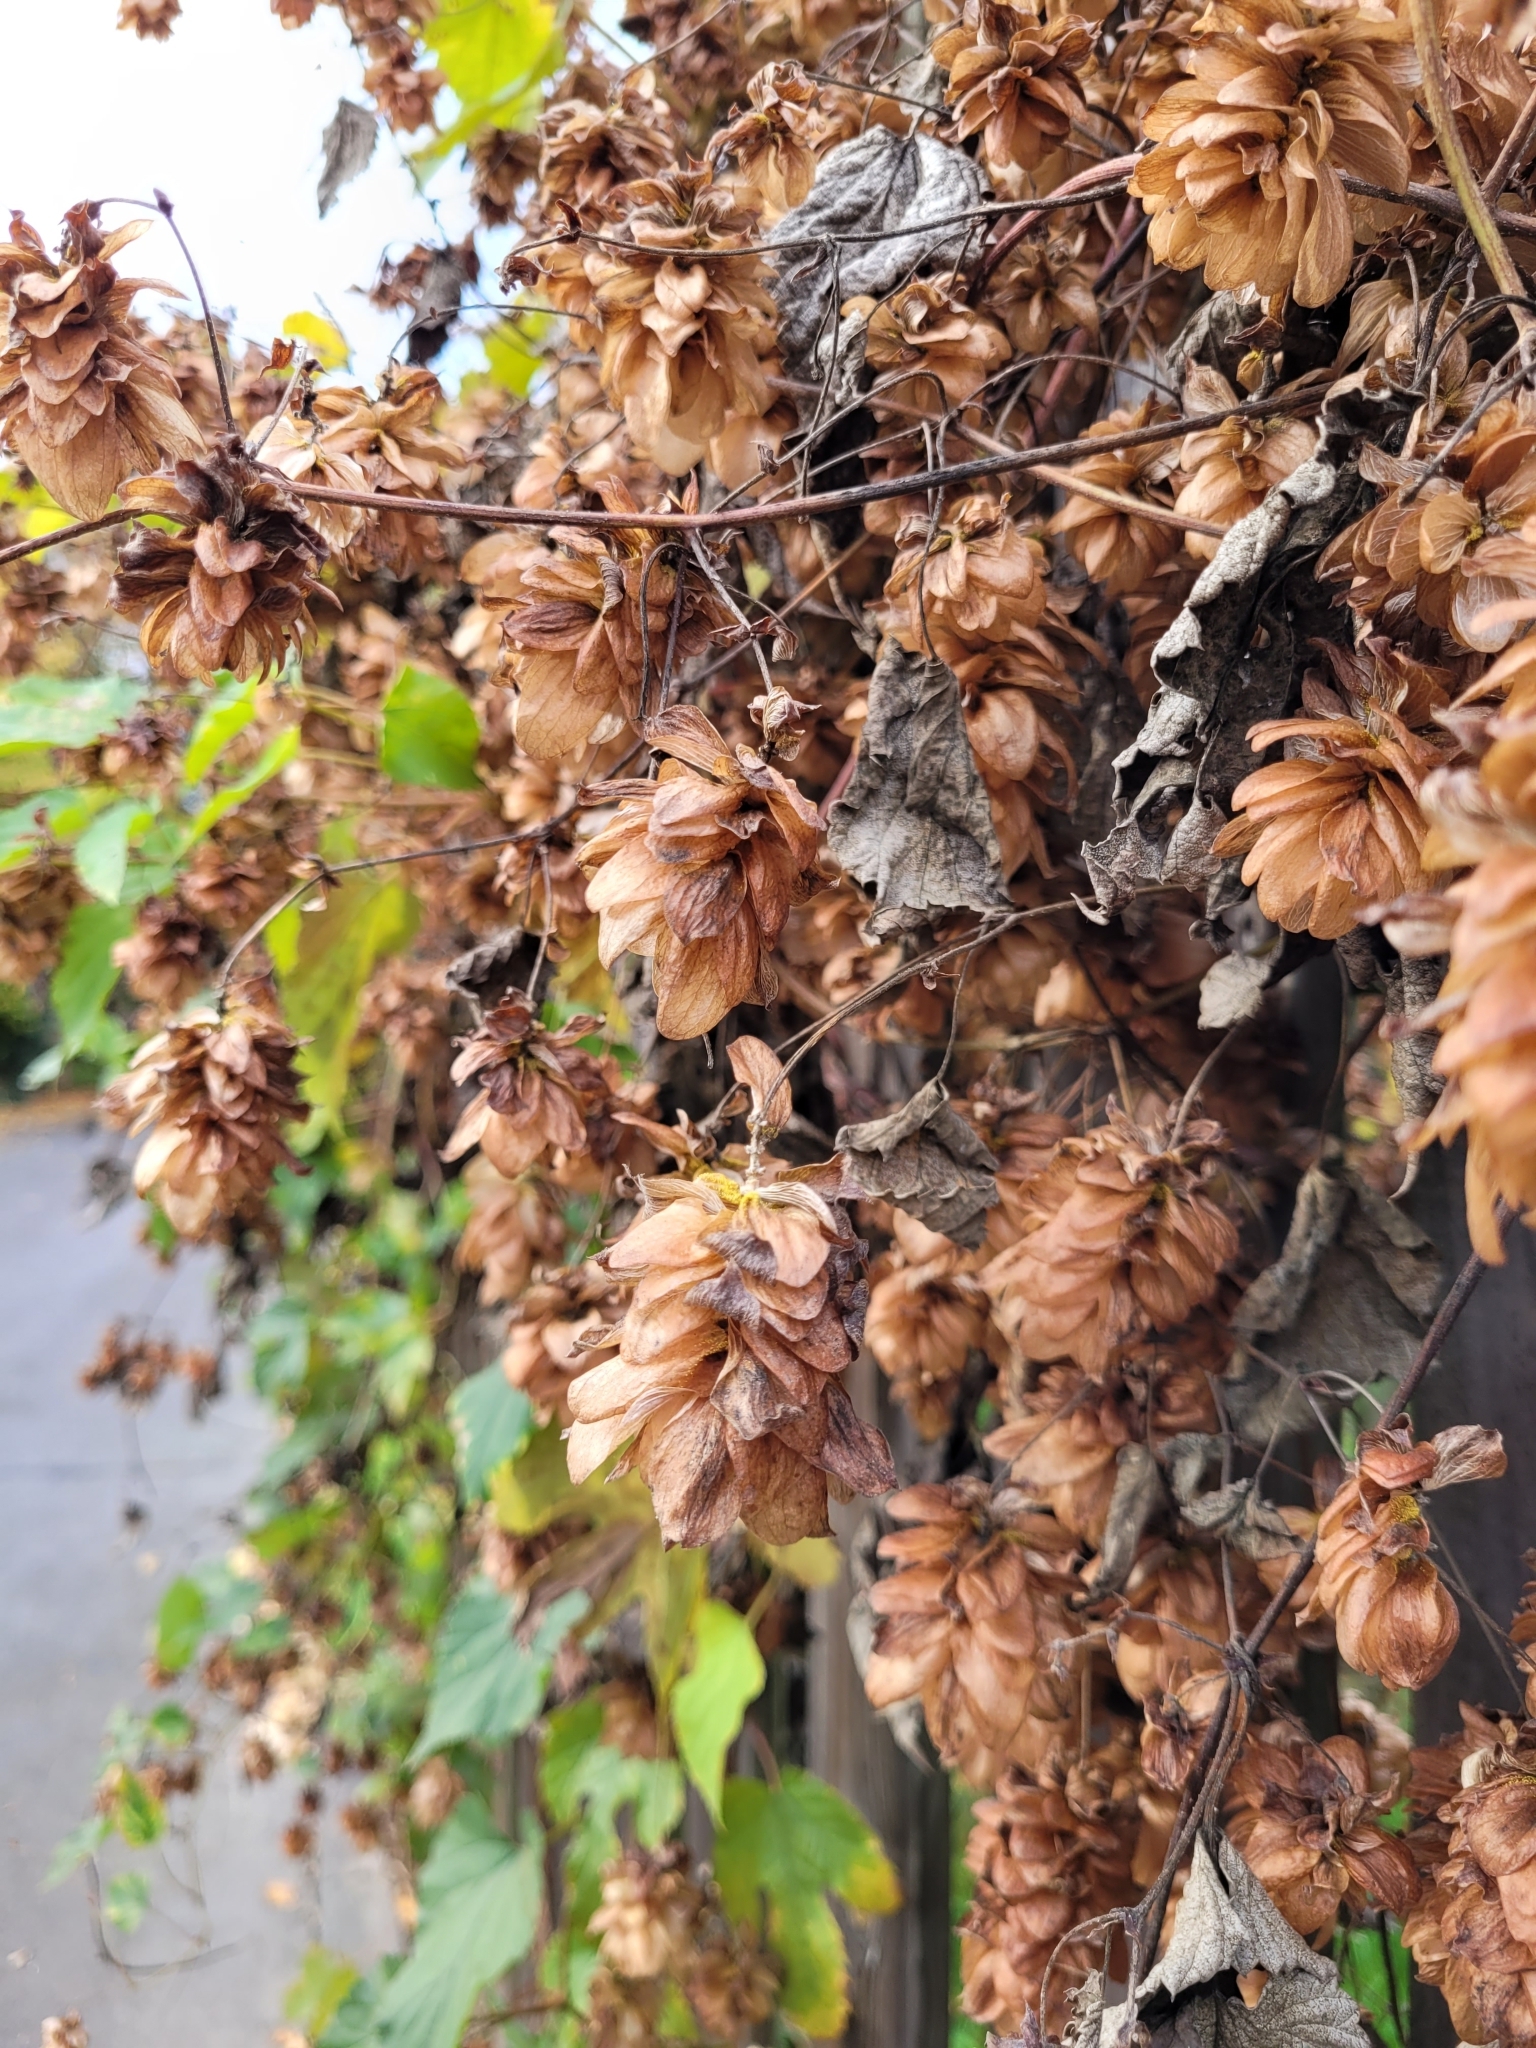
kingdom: Plantae
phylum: Tracheophyta
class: Magnoliopsida
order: Rosales
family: Cannabaceae
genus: Humulus
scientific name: Humulus lupulus
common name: Hop
